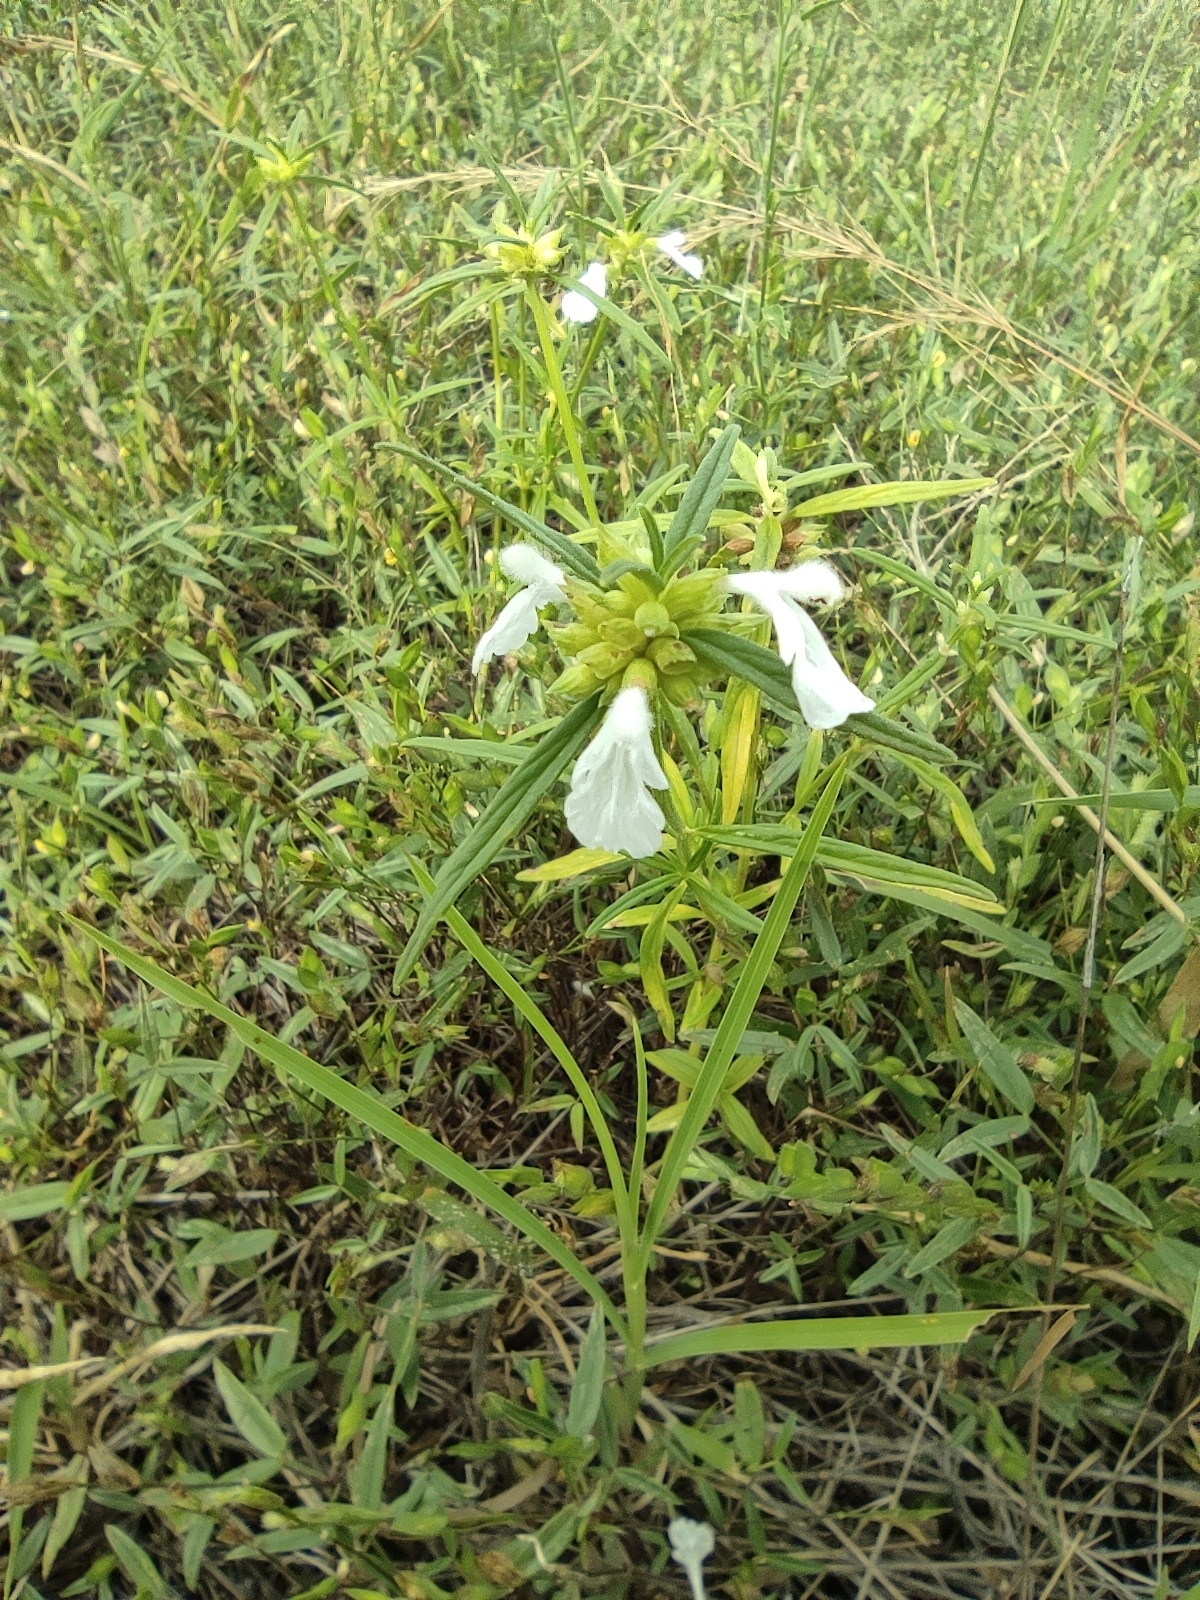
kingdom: Plantae
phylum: Tracheophyta
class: Magnoliopsida
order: Lamiales
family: Lamiaceae
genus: Leucas
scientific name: Leucas lavandulifolia
